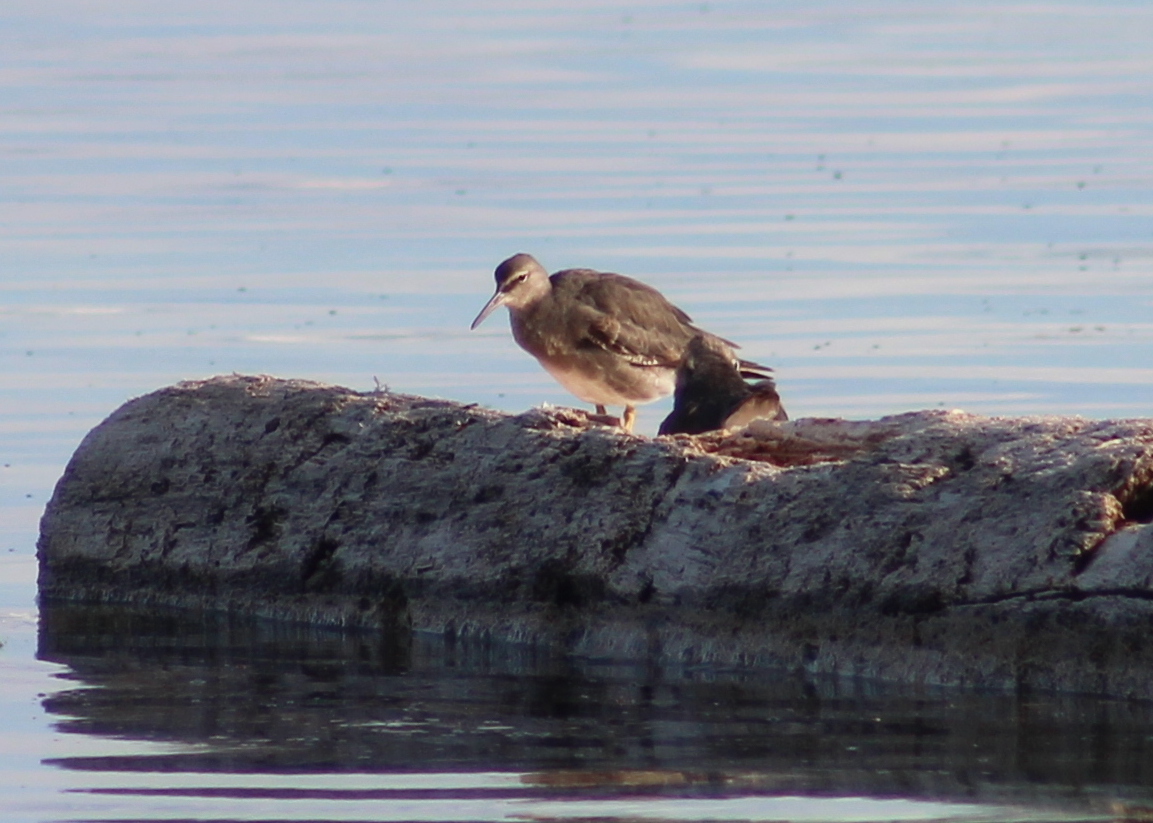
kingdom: Animalia
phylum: Chordata
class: Aves
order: Charadriiformes
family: Scolopacidae
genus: Tringa
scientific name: Tringa incana
